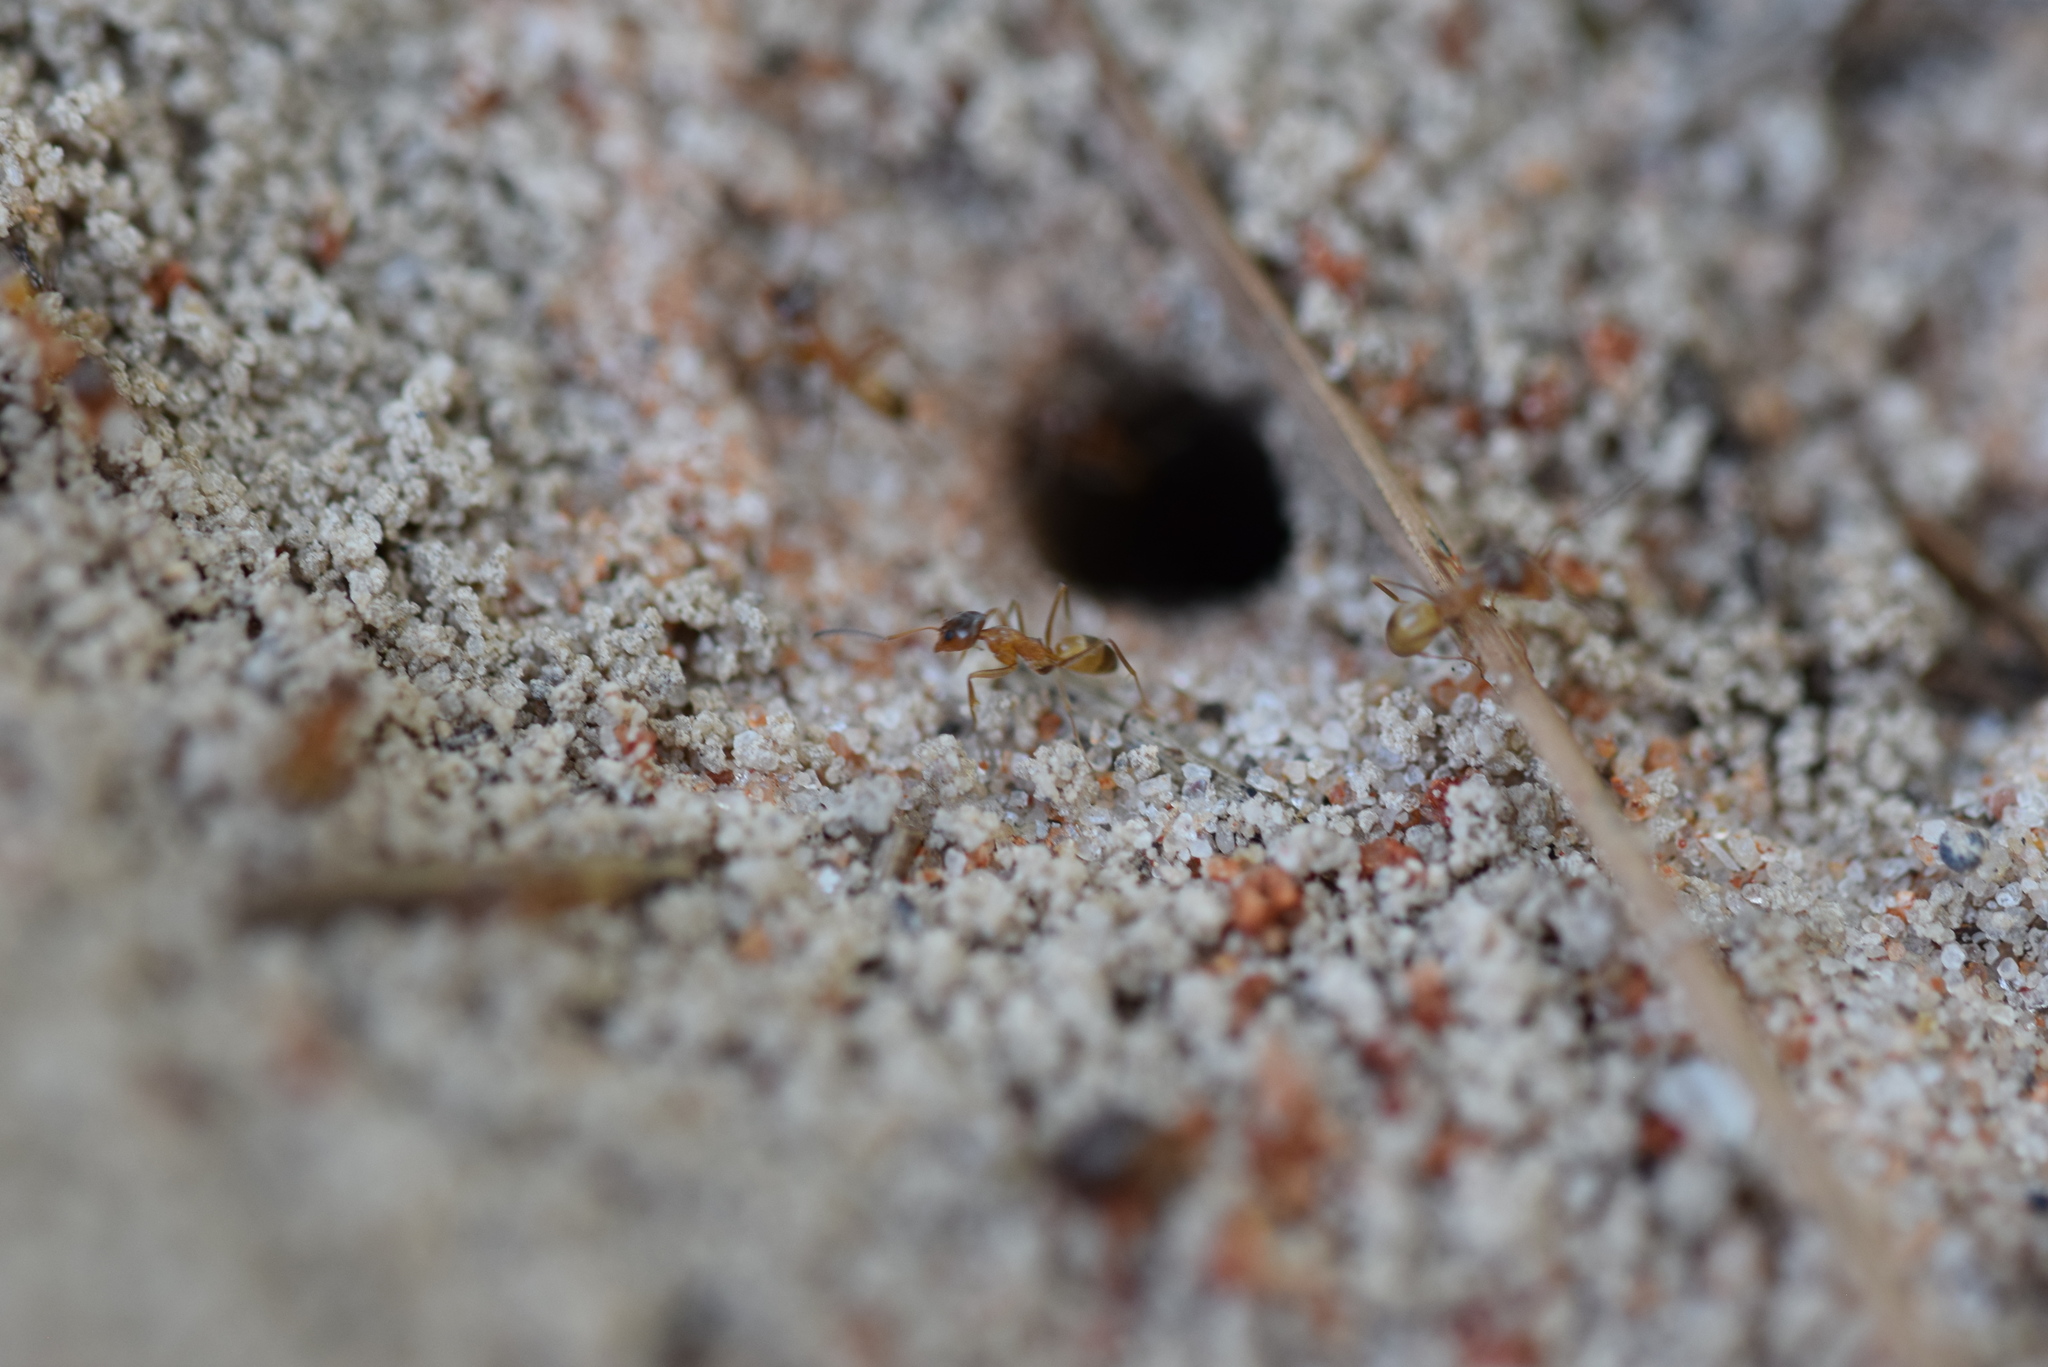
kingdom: Animalia
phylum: Arthropoda
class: Insecta
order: Hymenoptera
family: Formicidae
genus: Dorymyrmex
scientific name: Dorymyrmex flavus
